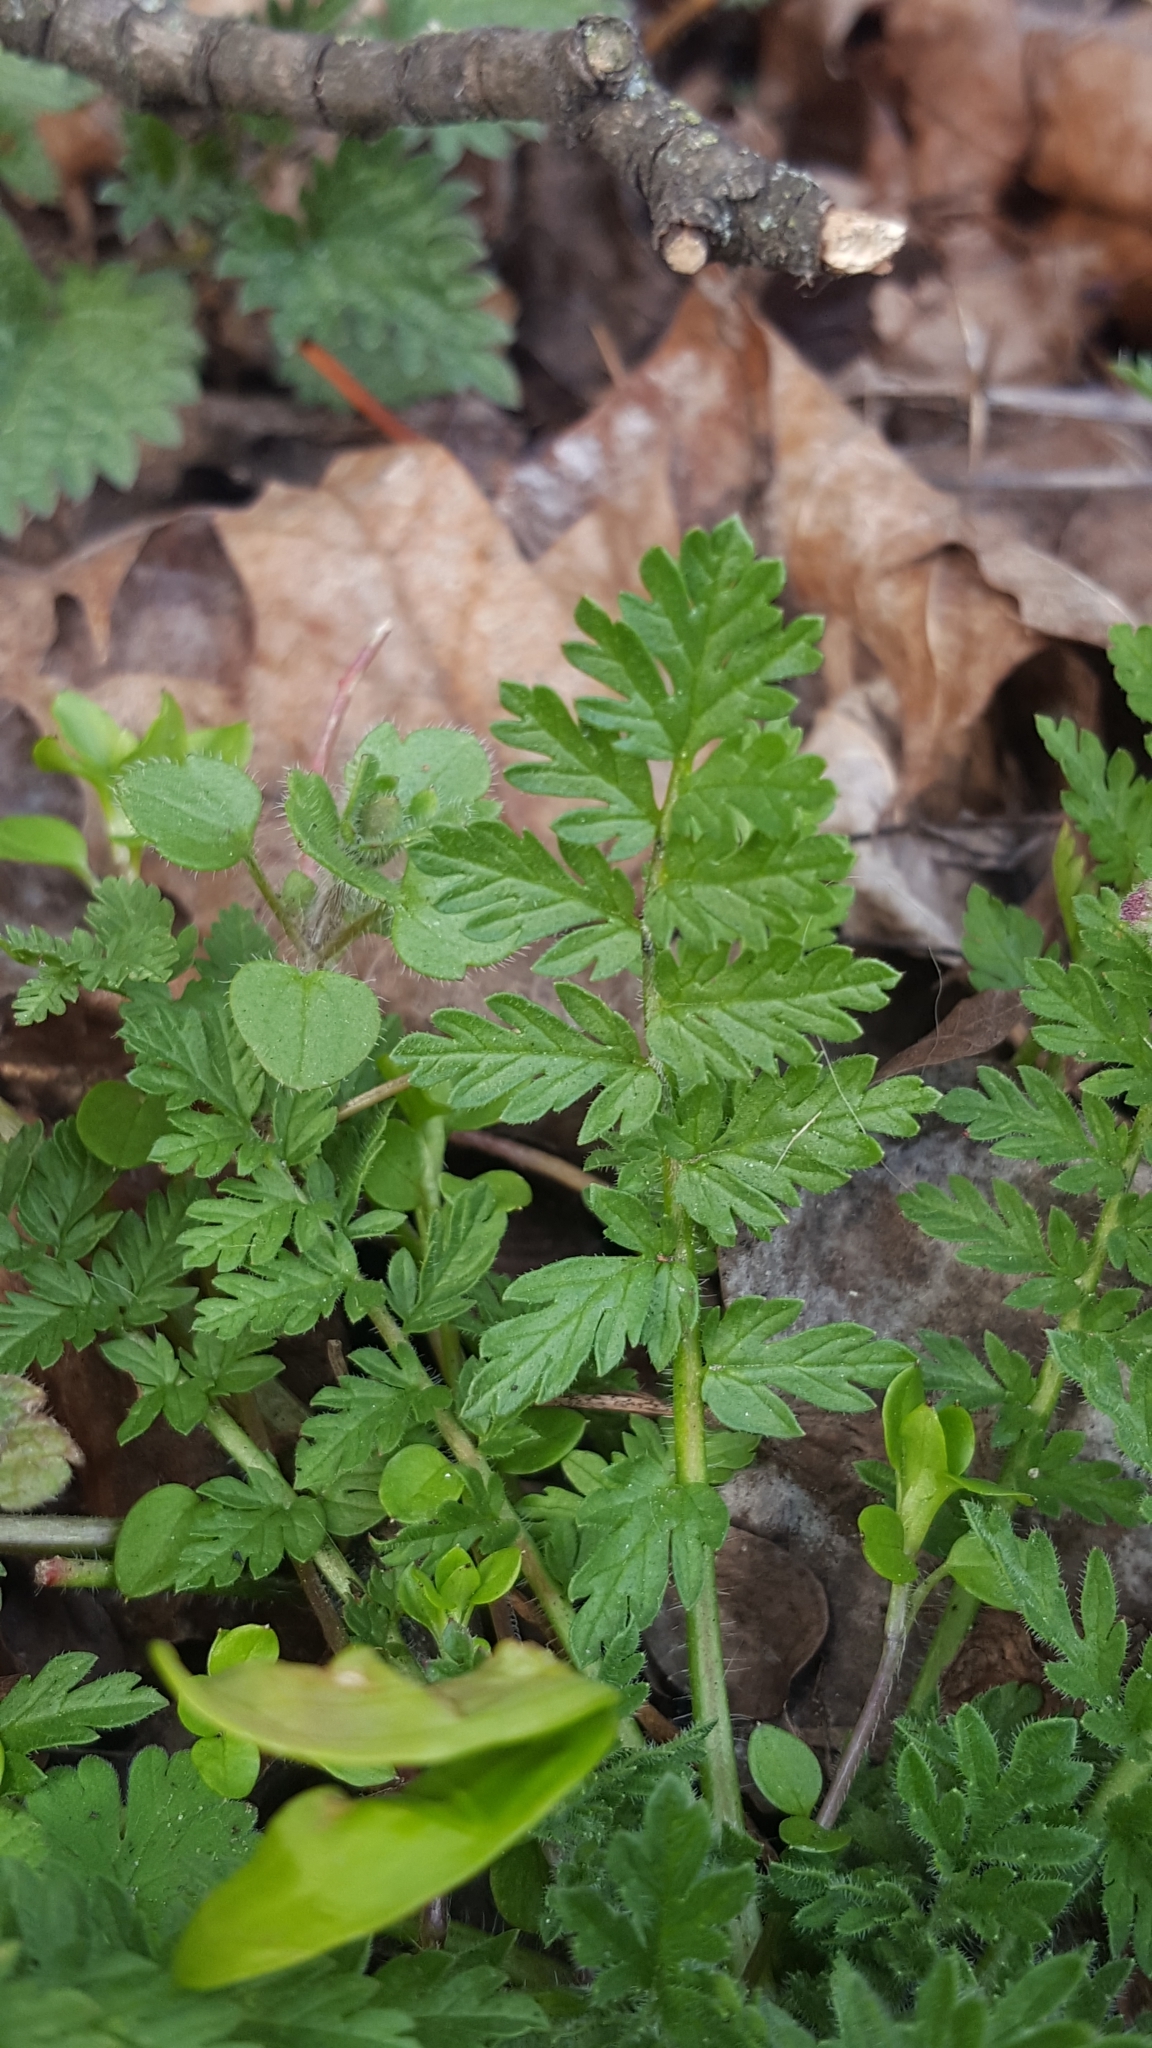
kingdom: Plantae
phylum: Tracheophyta
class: Magnoliopsida
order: Geraniales
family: Geraniaceae
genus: Erodium
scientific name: Erodium cicutarium
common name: Common stork's-bill
